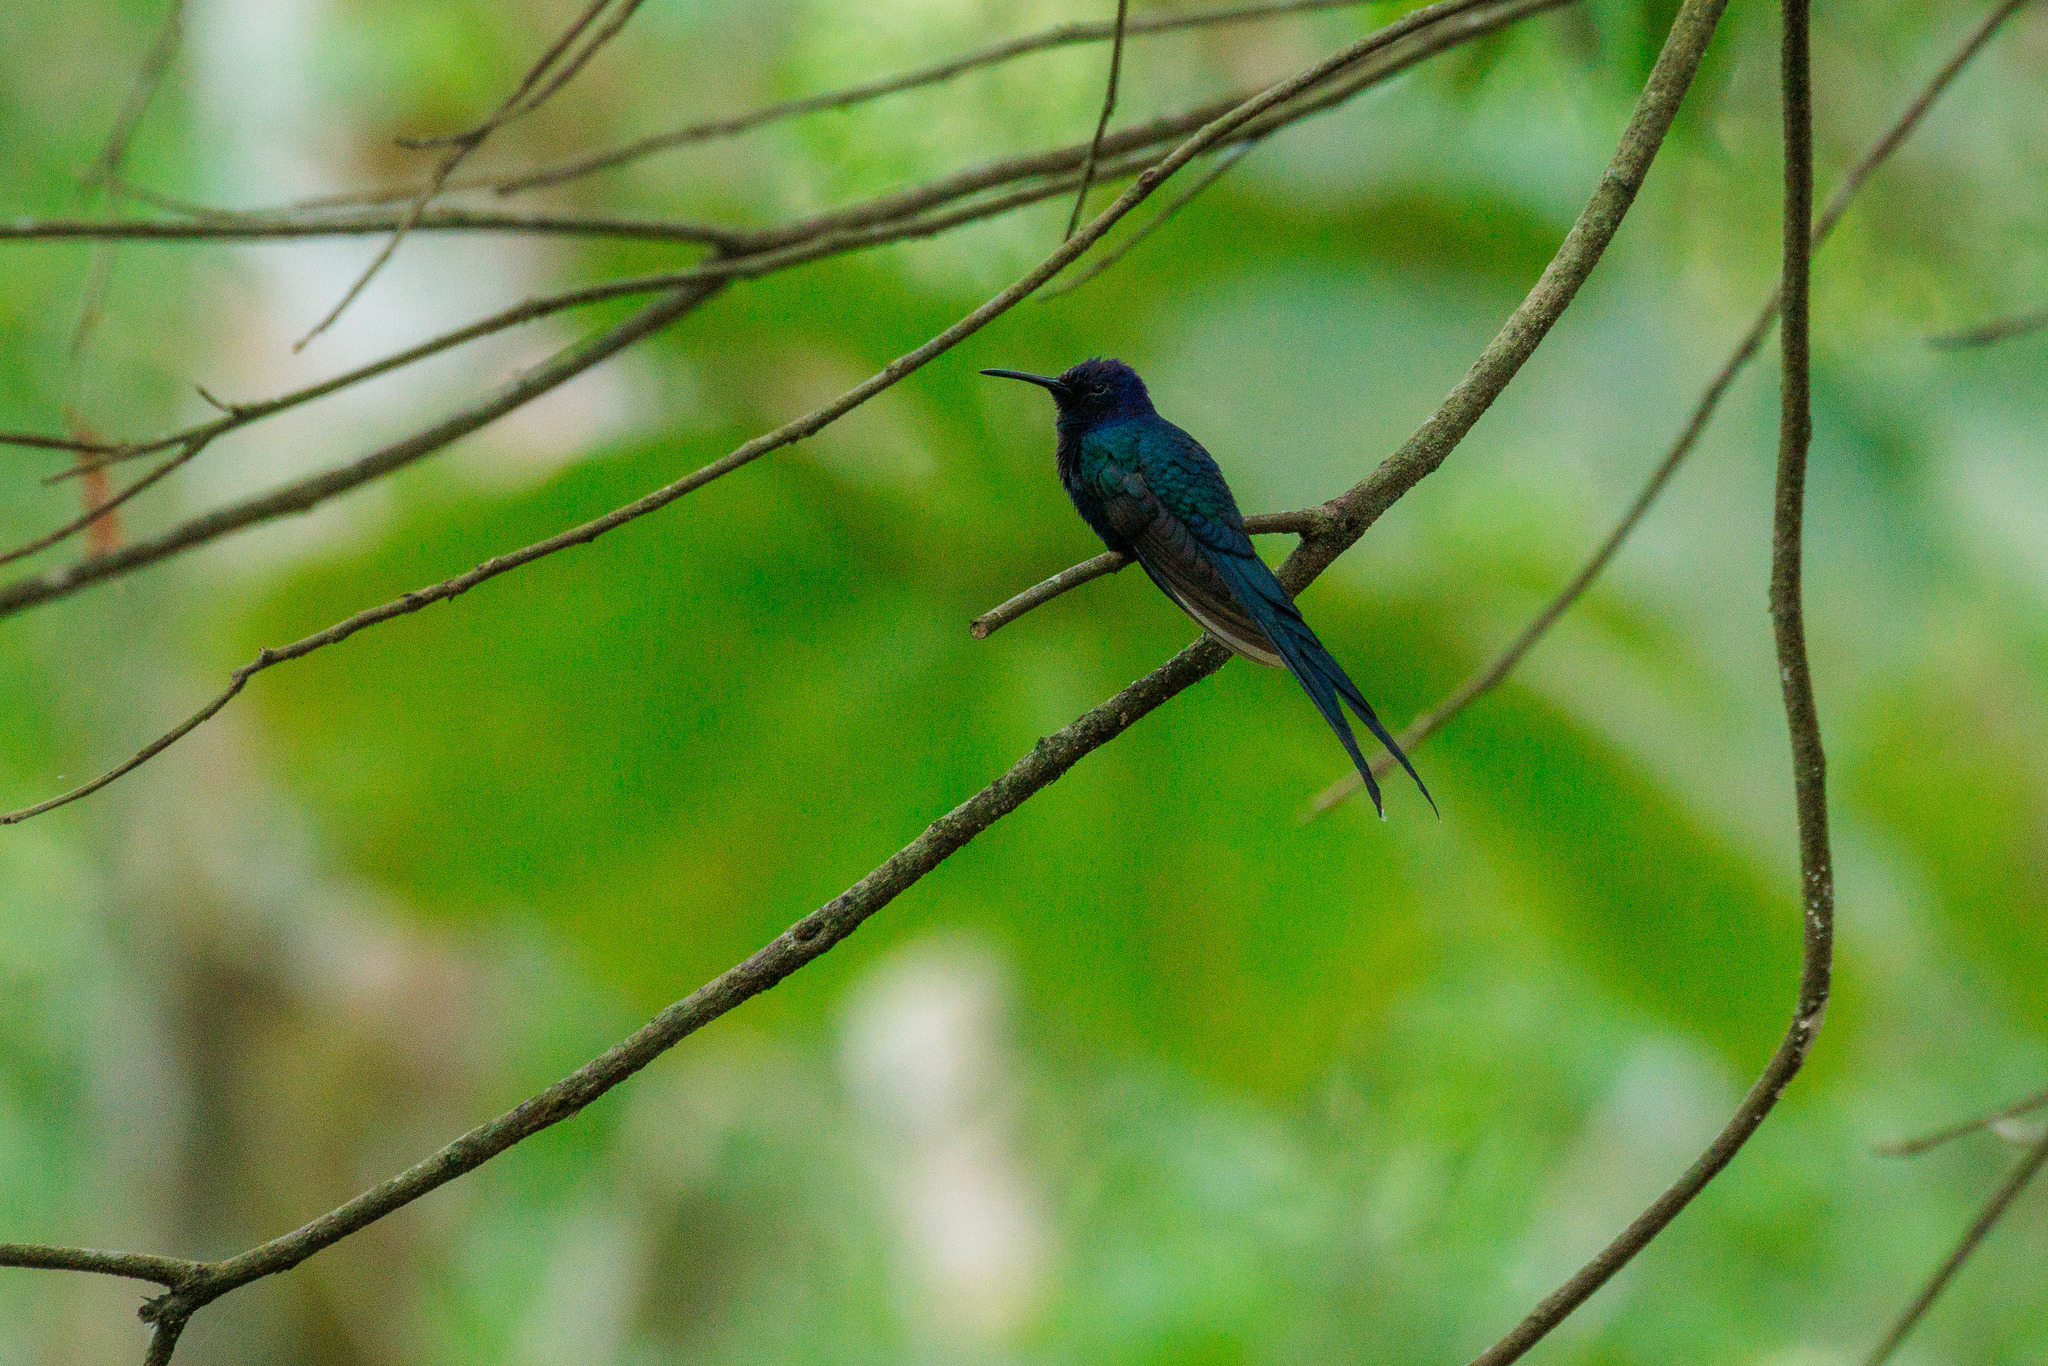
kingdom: Animalia
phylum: Chordata
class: Aves
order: Apodiformes
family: Trochilidae
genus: Eupetomena
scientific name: Eupetomena macroura
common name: Swallow-tailed hummingbird
